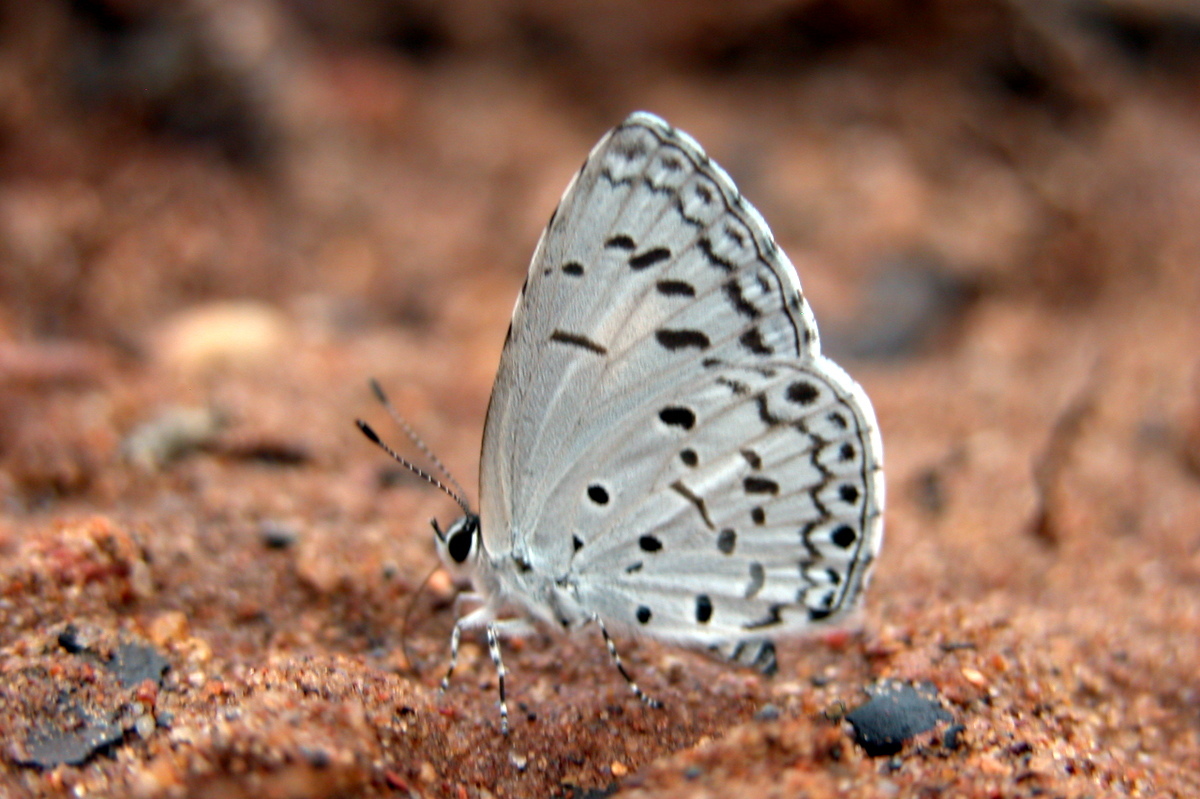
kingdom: Animalia
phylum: Arthropoda
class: Insecta
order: Lepidoptera
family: Lycaenidae
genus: Acytolepis
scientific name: Acytolepis puspa
